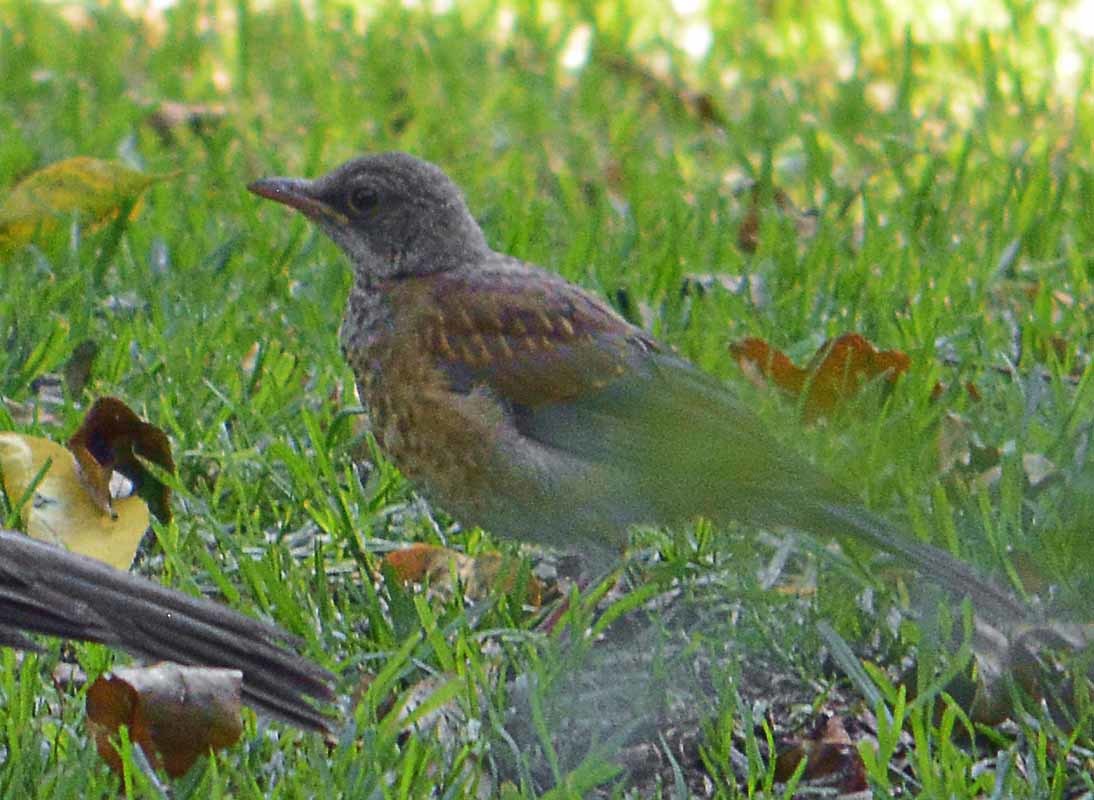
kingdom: Animalia
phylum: Chordata
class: Aves
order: Passeriformes
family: Turdidae
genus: Turdus
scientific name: Turdus rufopalliatus
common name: Rufous-backed robin
